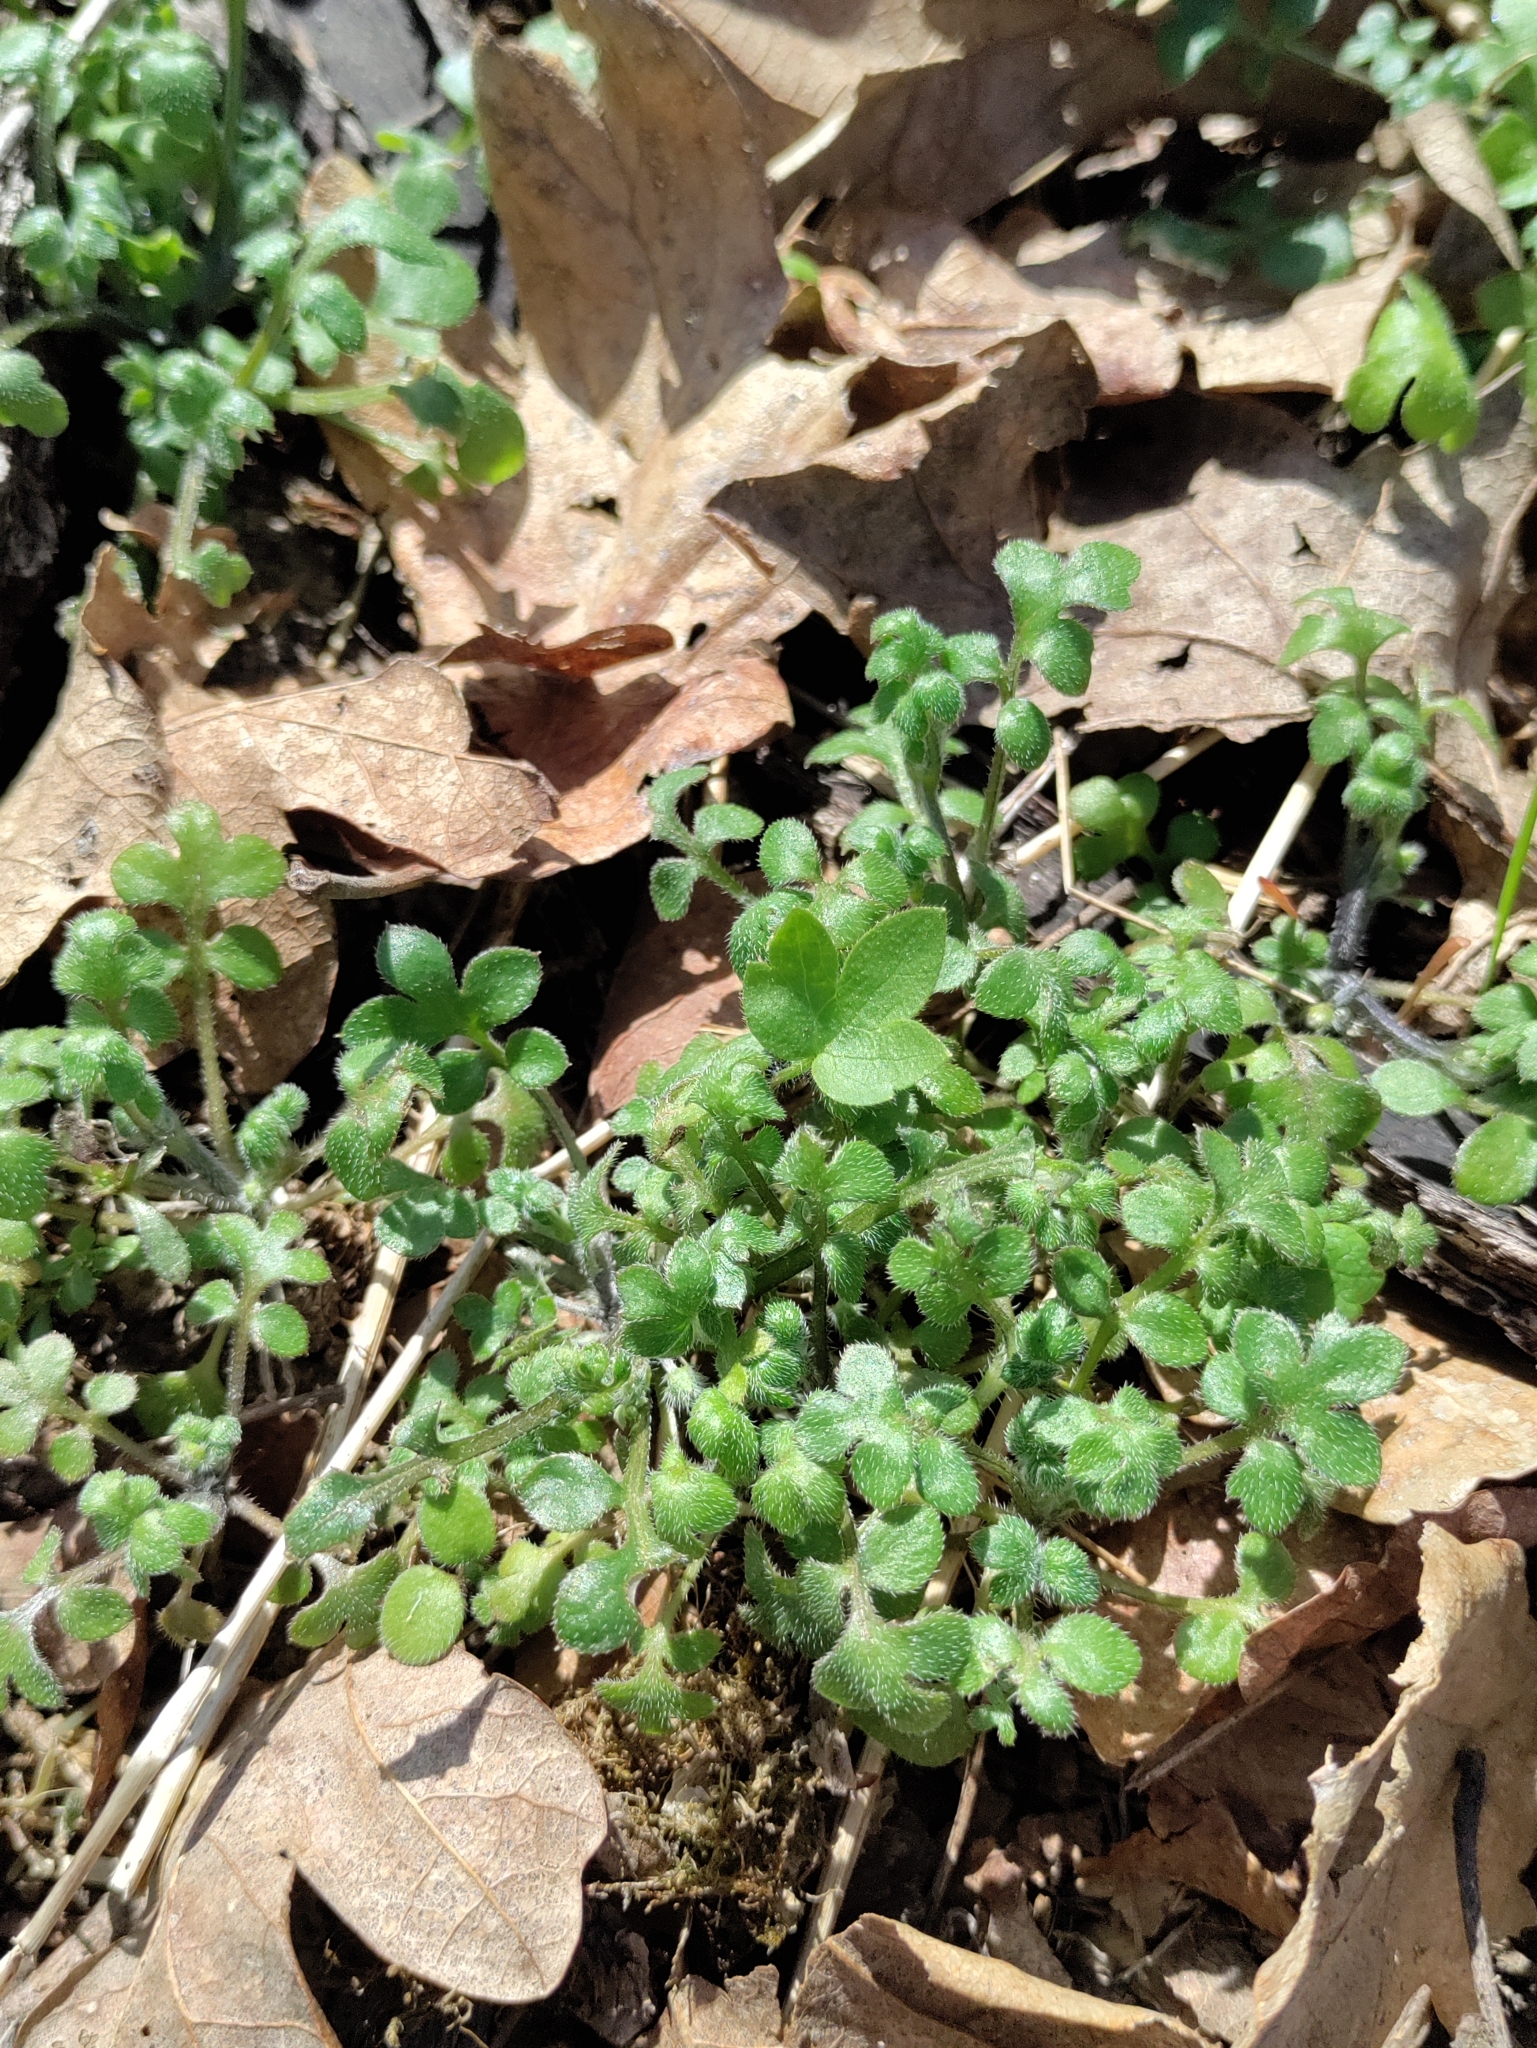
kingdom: Plantae
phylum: Tracheophyta
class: Magnoliopsida
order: Boraginales
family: Hydrophyllaceae
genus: Nemophila
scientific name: Nemophila parviflora
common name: Small-flowered baby-blue-eyes
